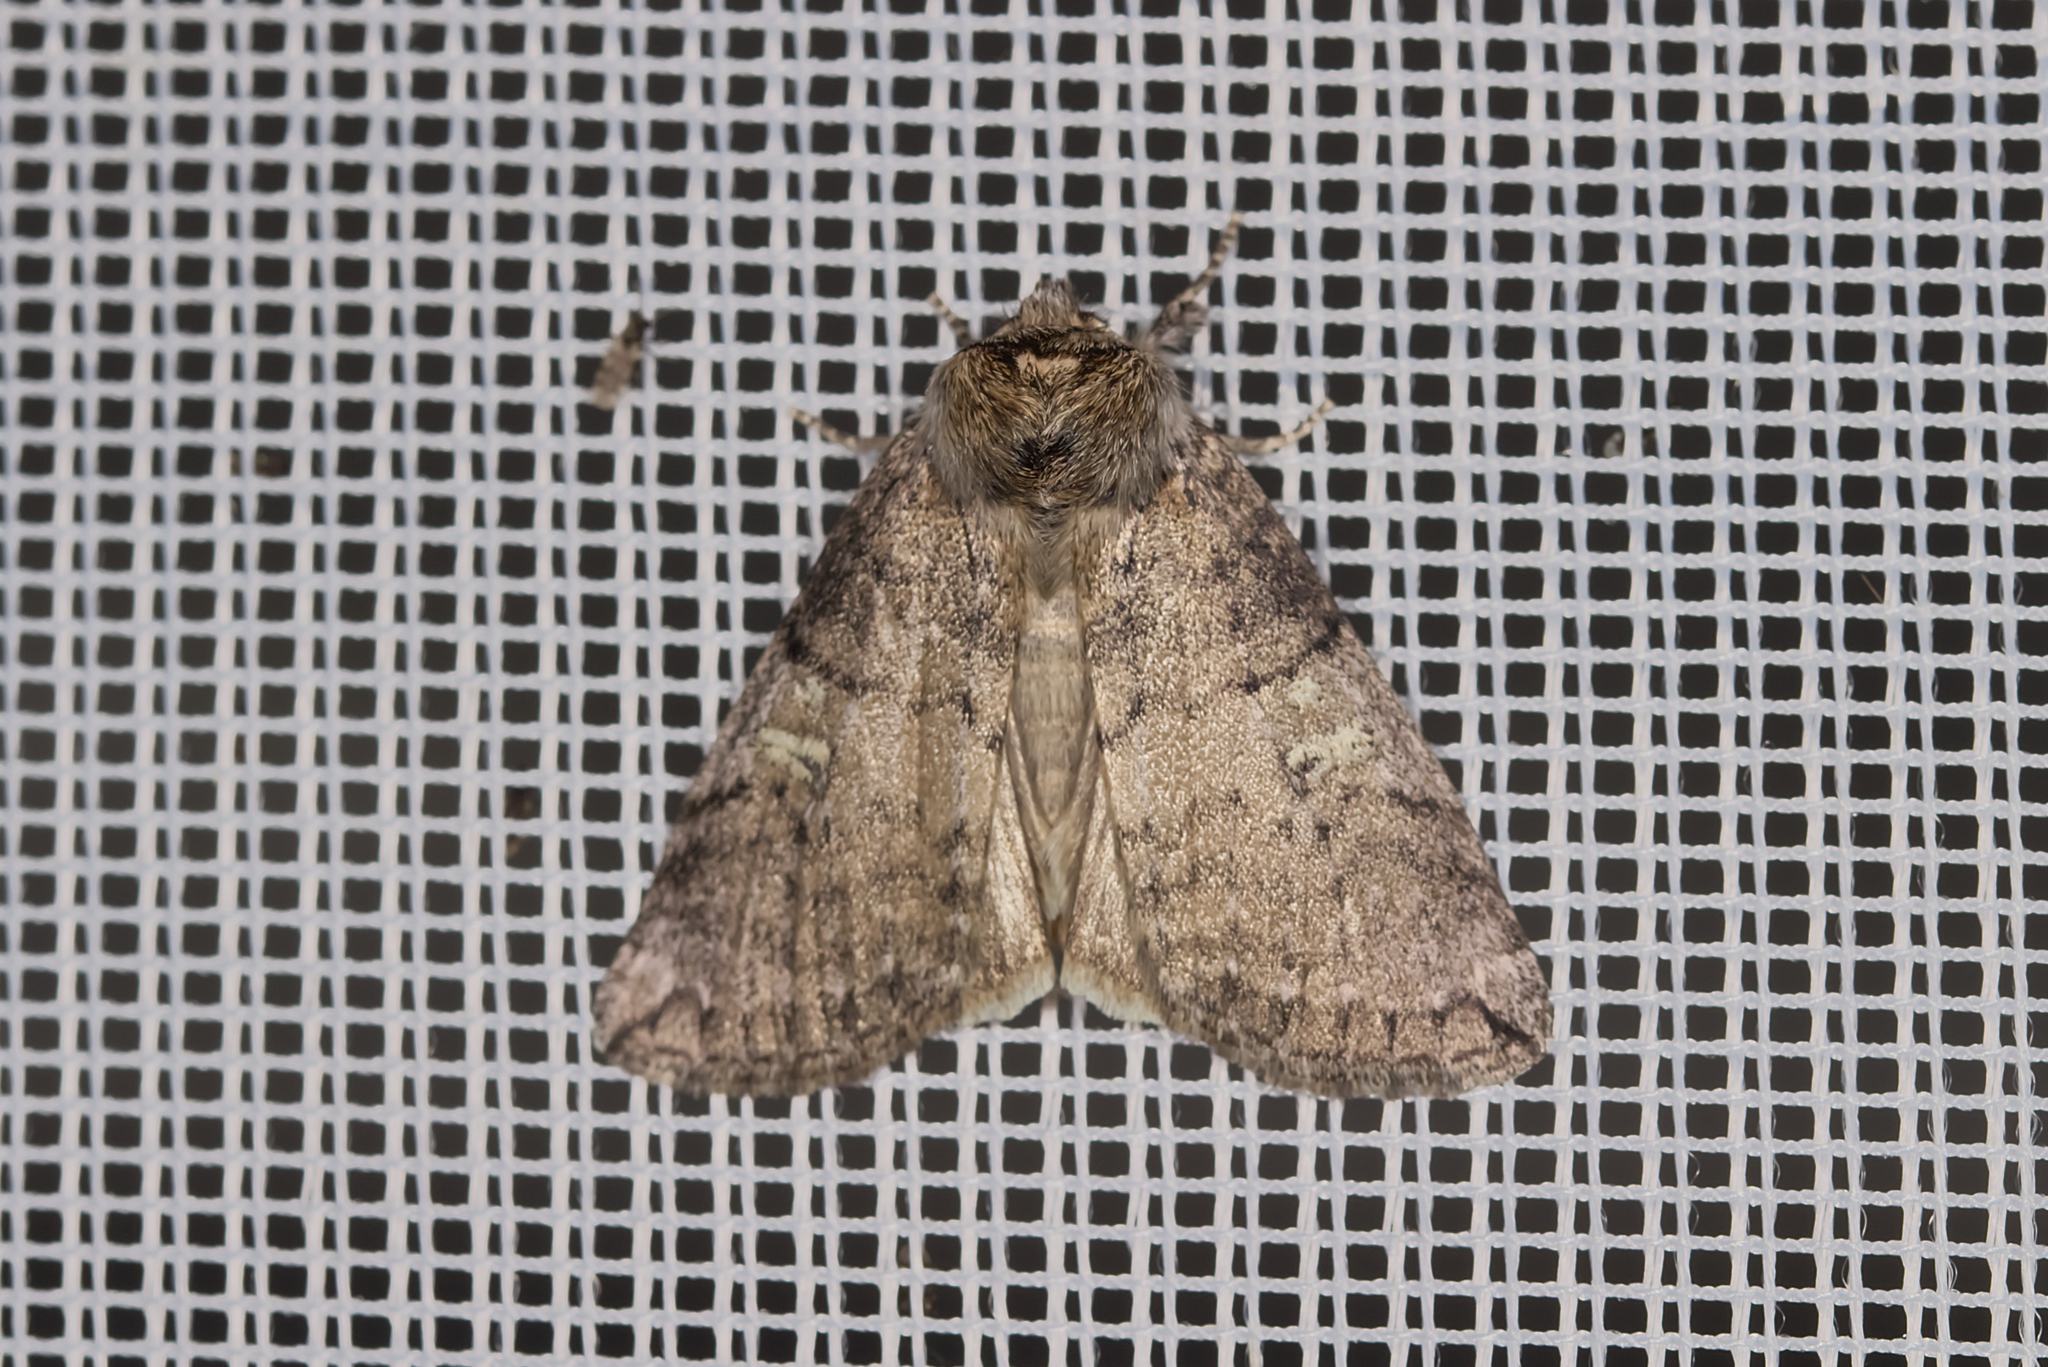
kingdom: Animalia
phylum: Arthropoda
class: Insecta
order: Lepidoptera
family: Drepanidae
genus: Tethea
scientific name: Tethea or
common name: Poplar lutestring
